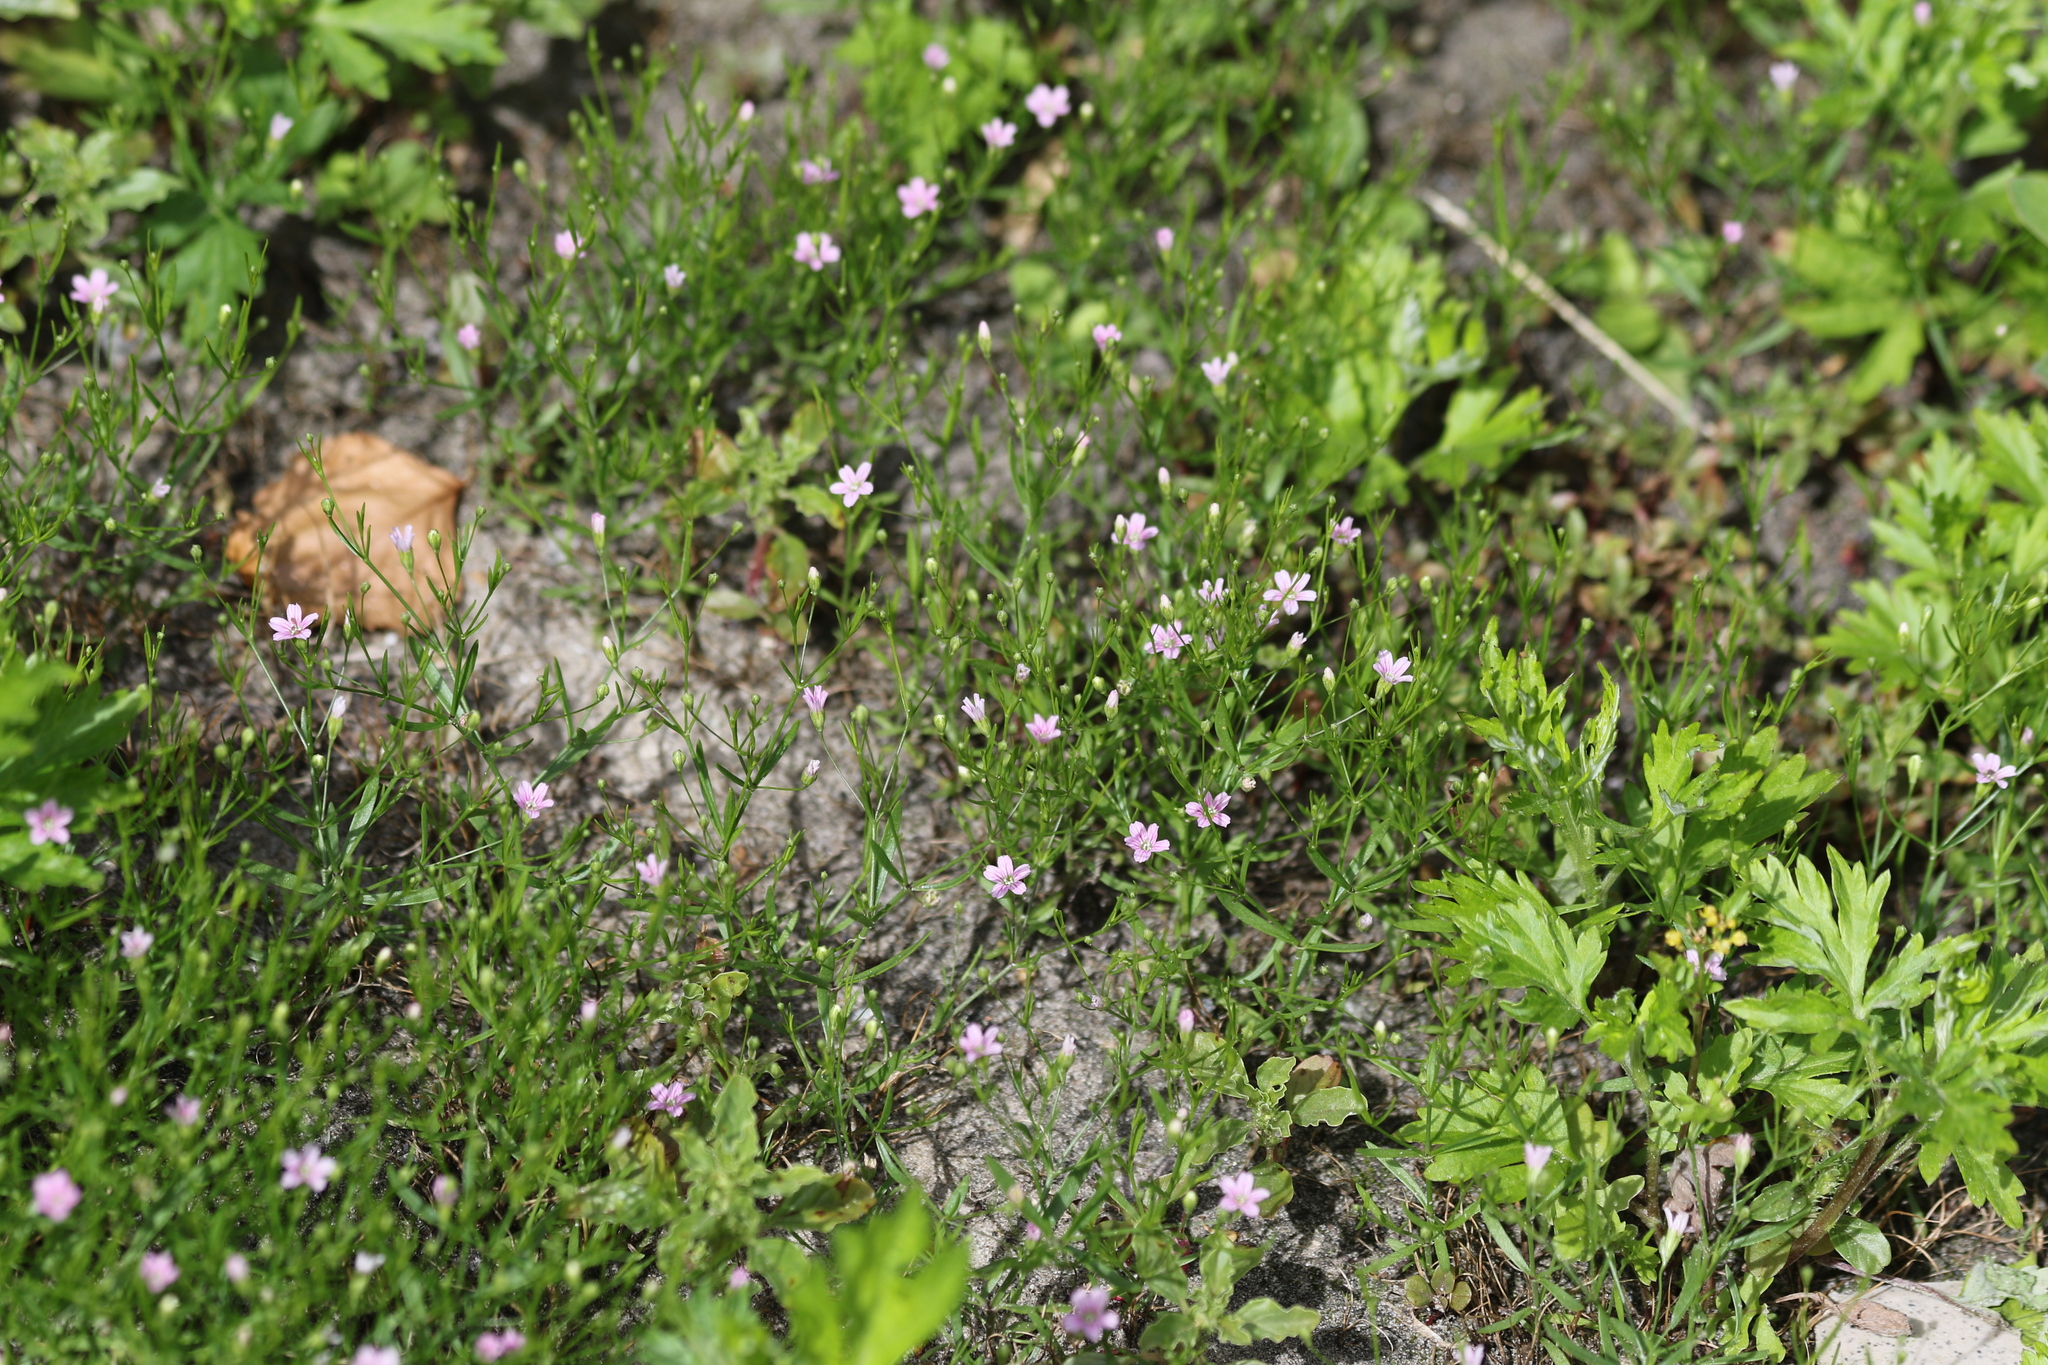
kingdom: Plantae
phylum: Tracheophyta
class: Magnoliopsida
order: Caryophyllales
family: Caryophyllaceae
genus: Psammophiliella
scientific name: Psammophiliella muralis
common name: Cushion baby's-breath
